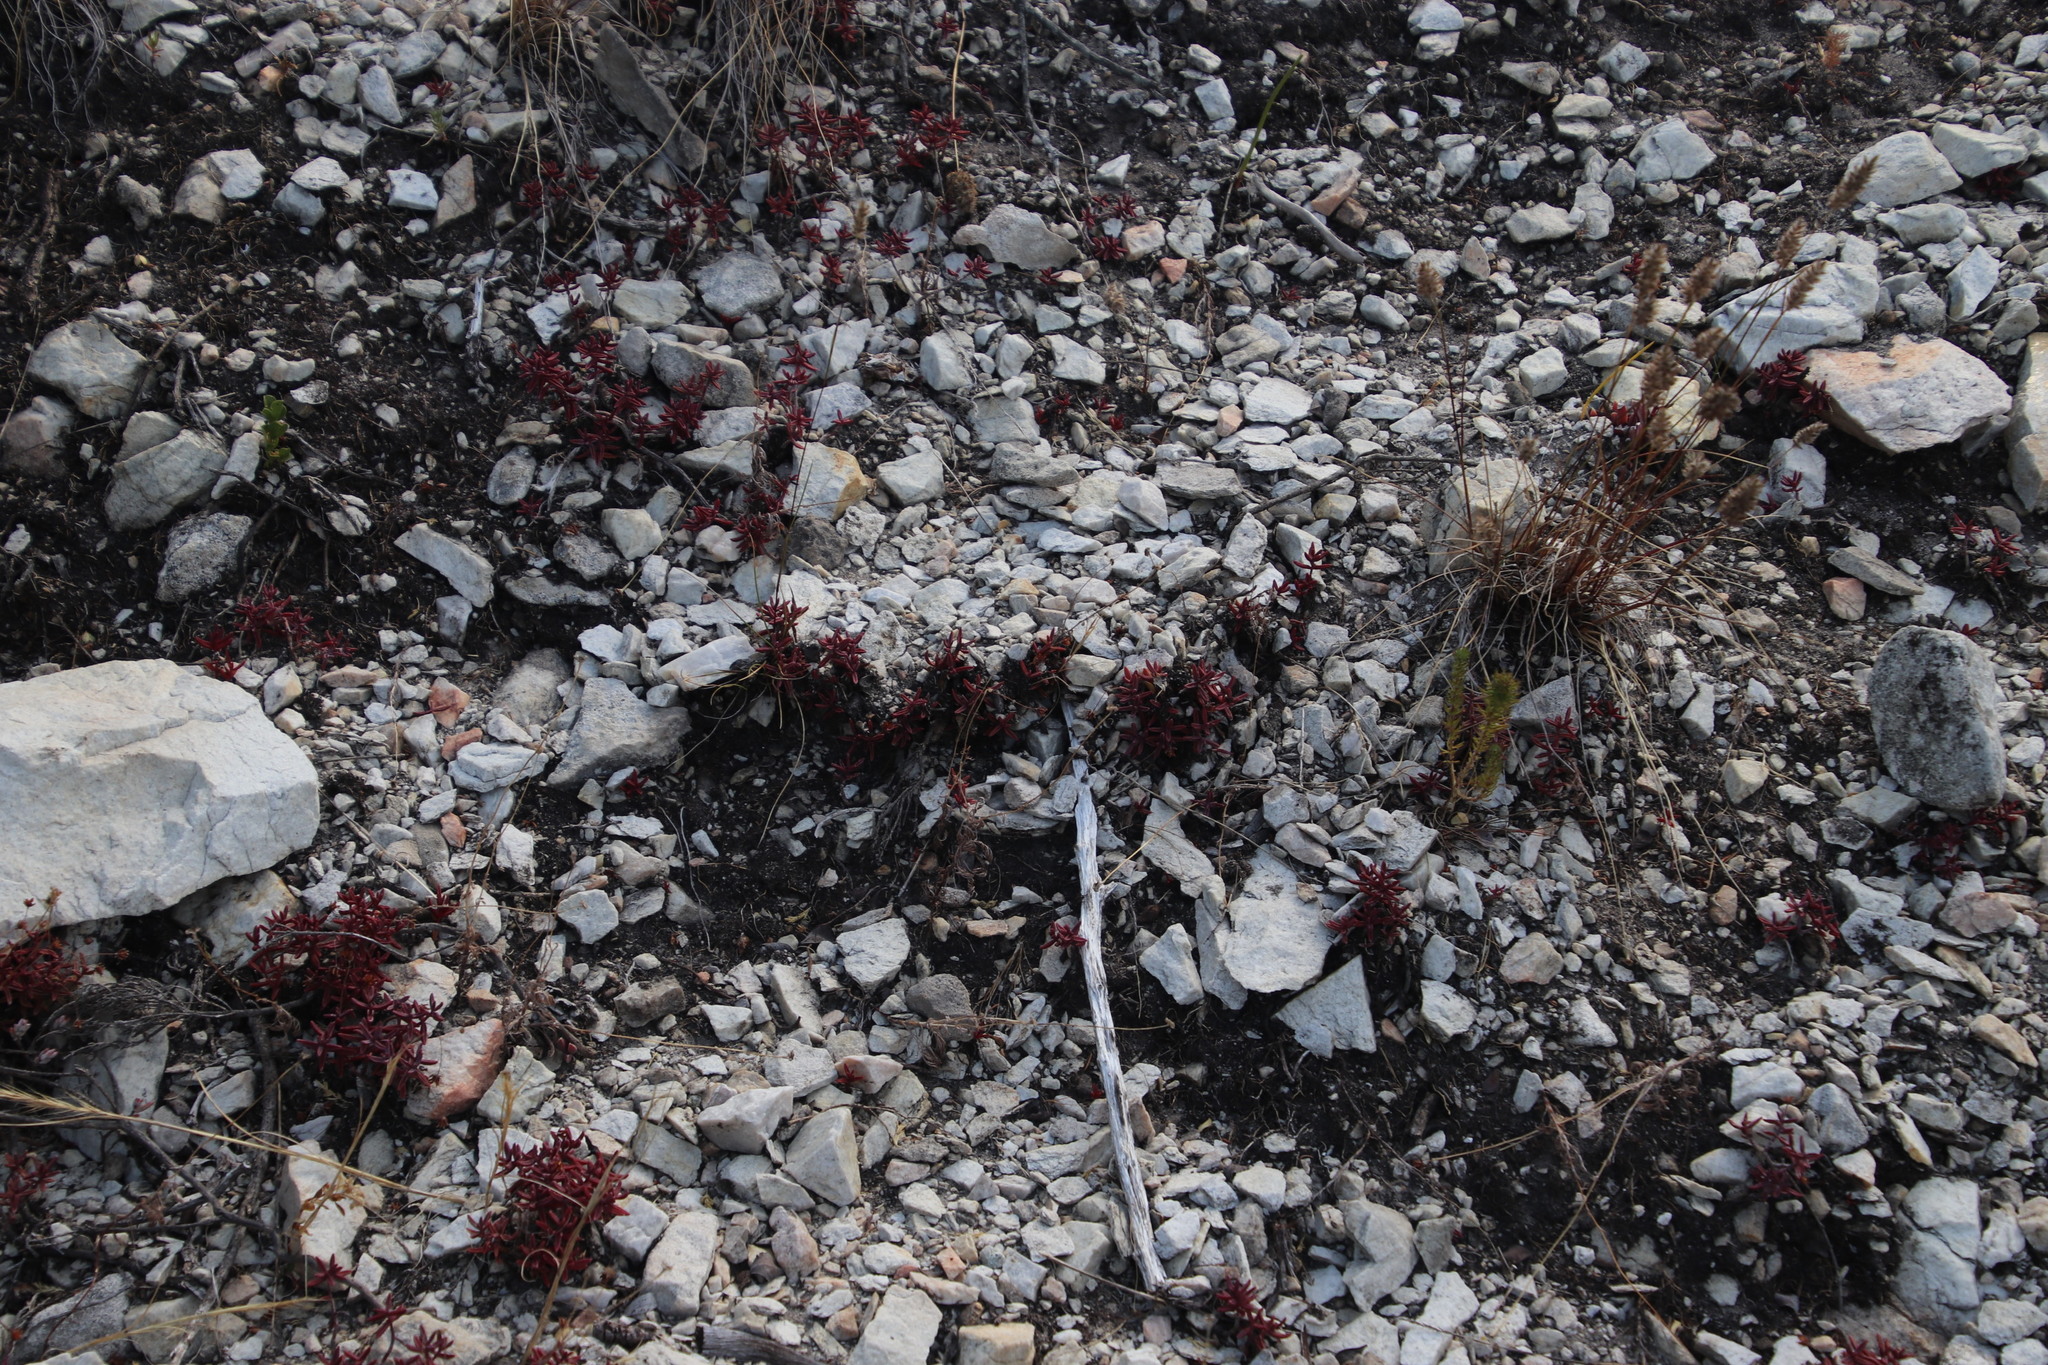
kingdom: Plantae
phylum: Tracheophyta
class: Magnoliopsida
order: Saxifragales
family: Crassulaceae
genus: Crassula
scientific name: Crassula expansa
